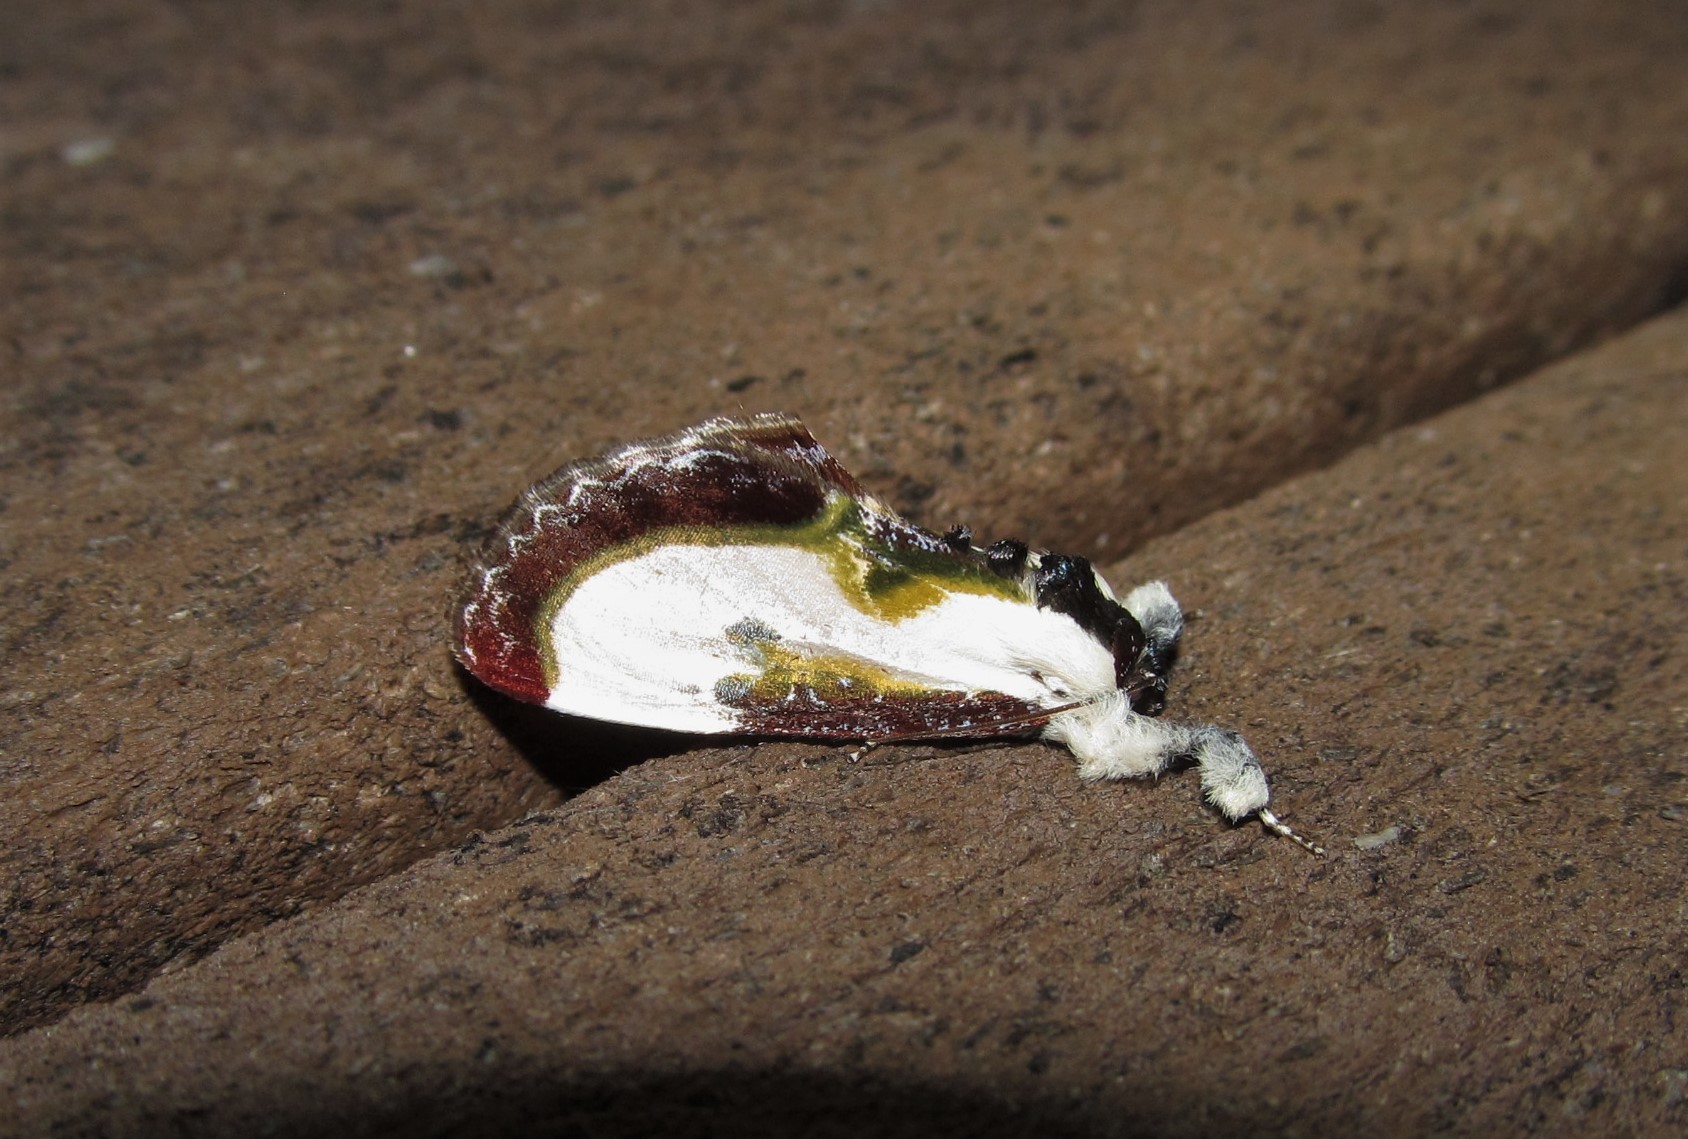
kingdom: Animalia
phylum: Arthropoda
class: Insecta
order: Lepidoptera
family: Noctuidae
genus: Eudryas
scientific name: Eudryas grata
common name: Beautiful wood-nymph
